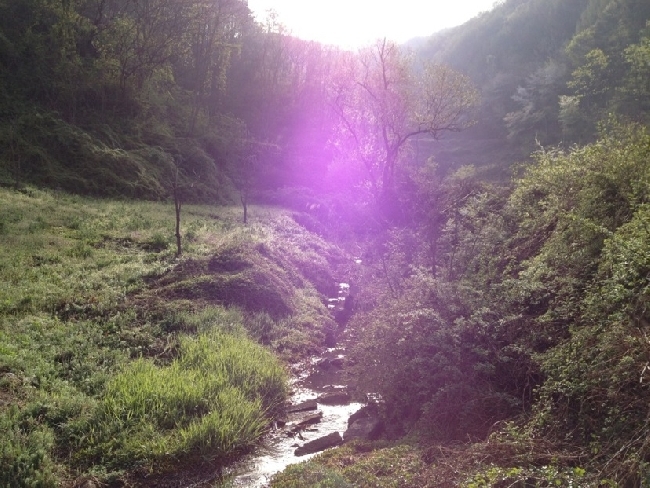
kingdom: Animalia
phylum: Chordata
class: Amphibia
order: Anura
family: Ranidae
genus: Rana
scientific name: Rana huanrenensis
